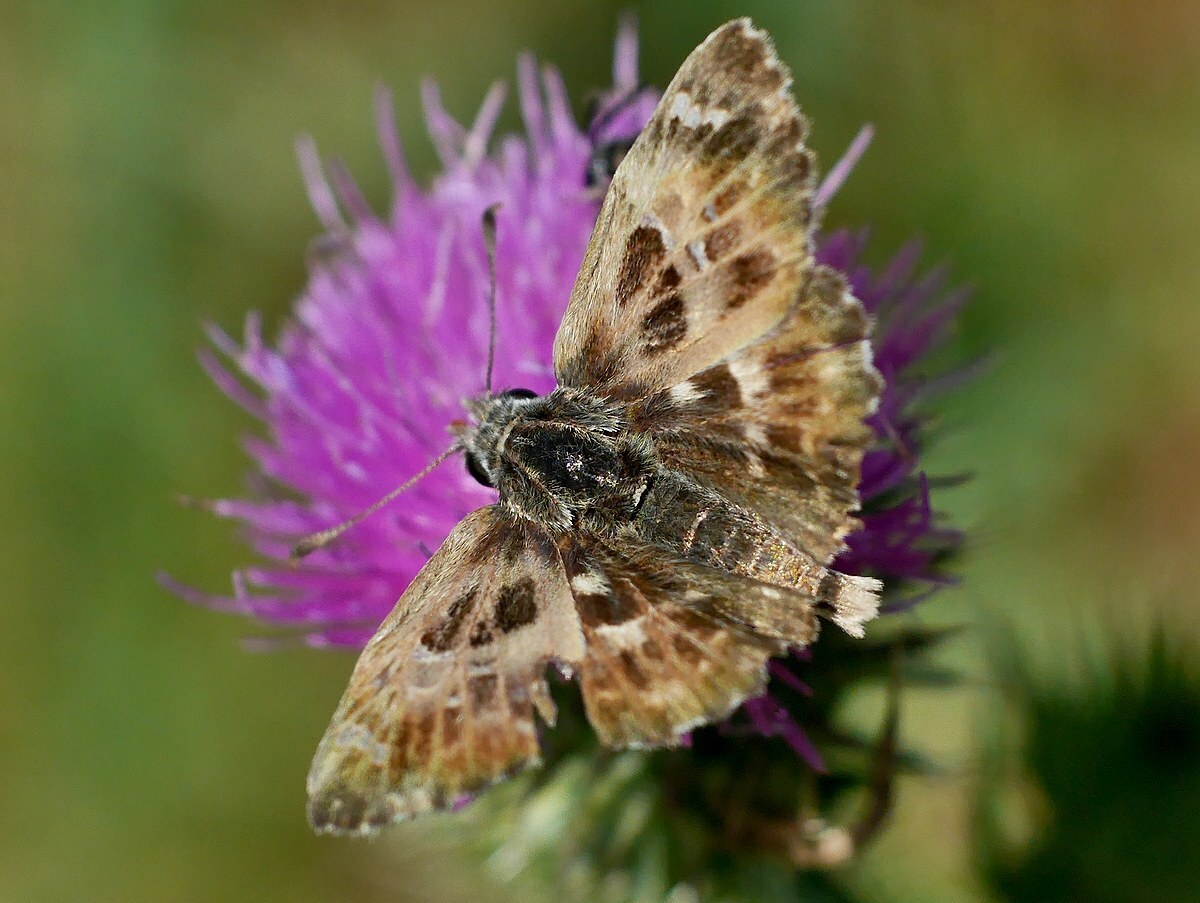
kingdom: Animalia
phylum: Arthropoda
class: Insecta
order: Lepidoptera
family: Hesperiidae
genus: Carcharodus
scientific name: Carcharodus alceae
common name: Mallow skipper
